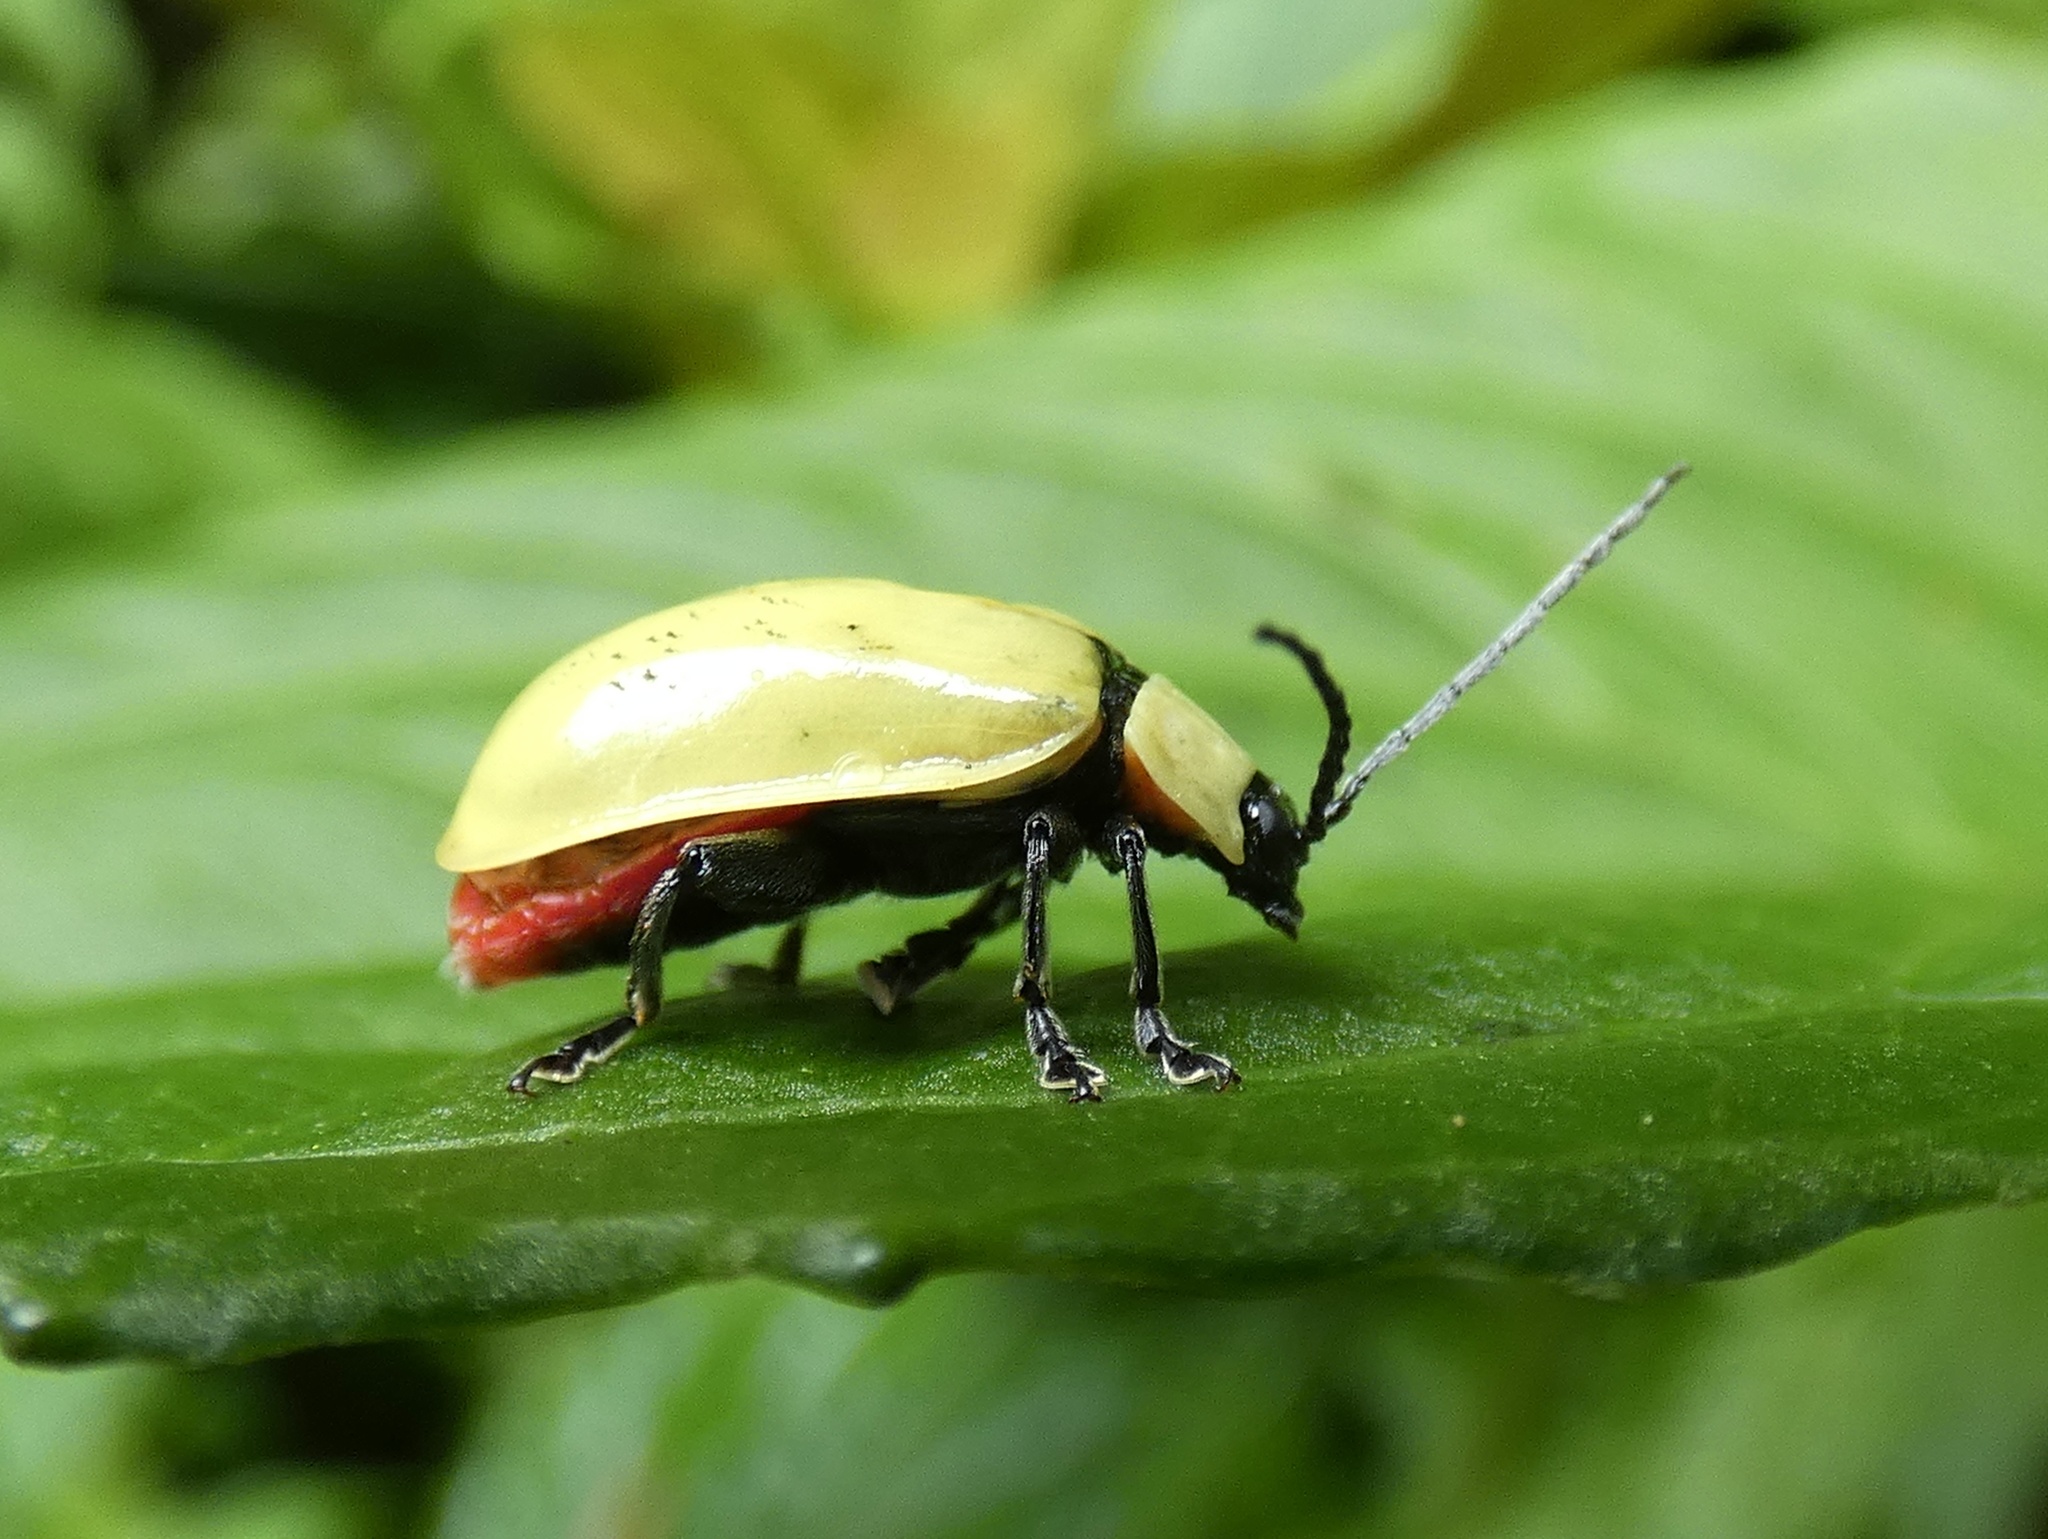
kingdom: Animalia
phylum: Arthropoda
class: Insecta
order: Coleoptera
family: Chrysomelidae
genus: Asphaera
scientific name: Asphaera
